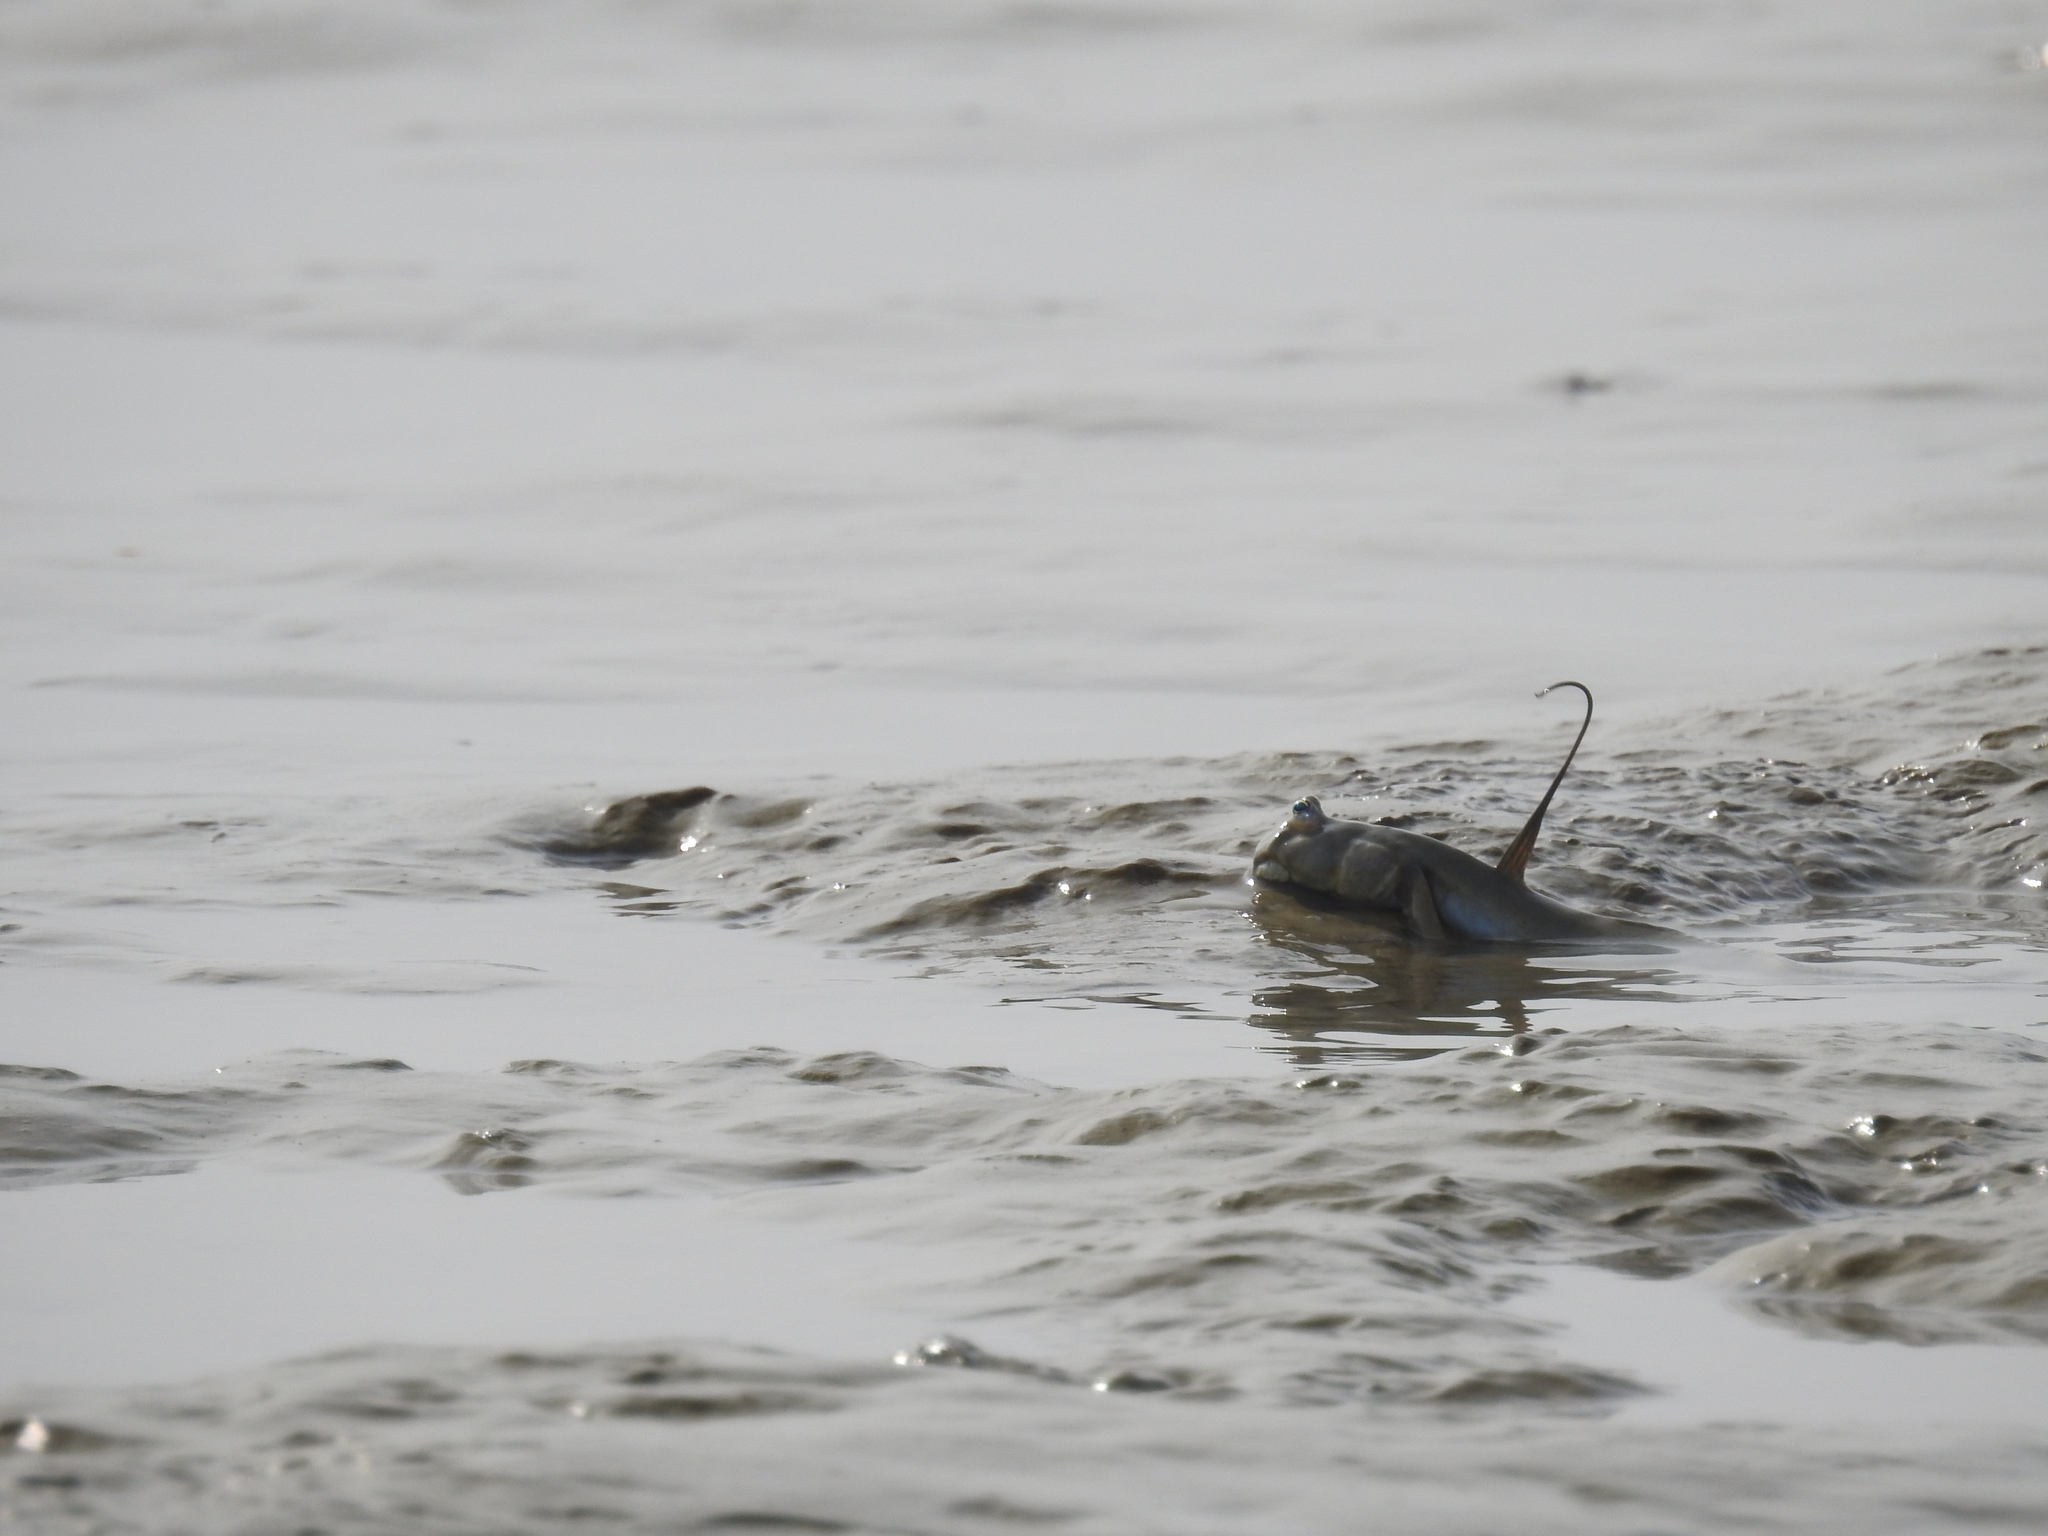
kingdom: Animalia
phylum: Chordata
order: Perciformes
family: Gobiidae
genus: Scartelaos
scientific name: Scartelaos histophorus
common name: Walking goby
